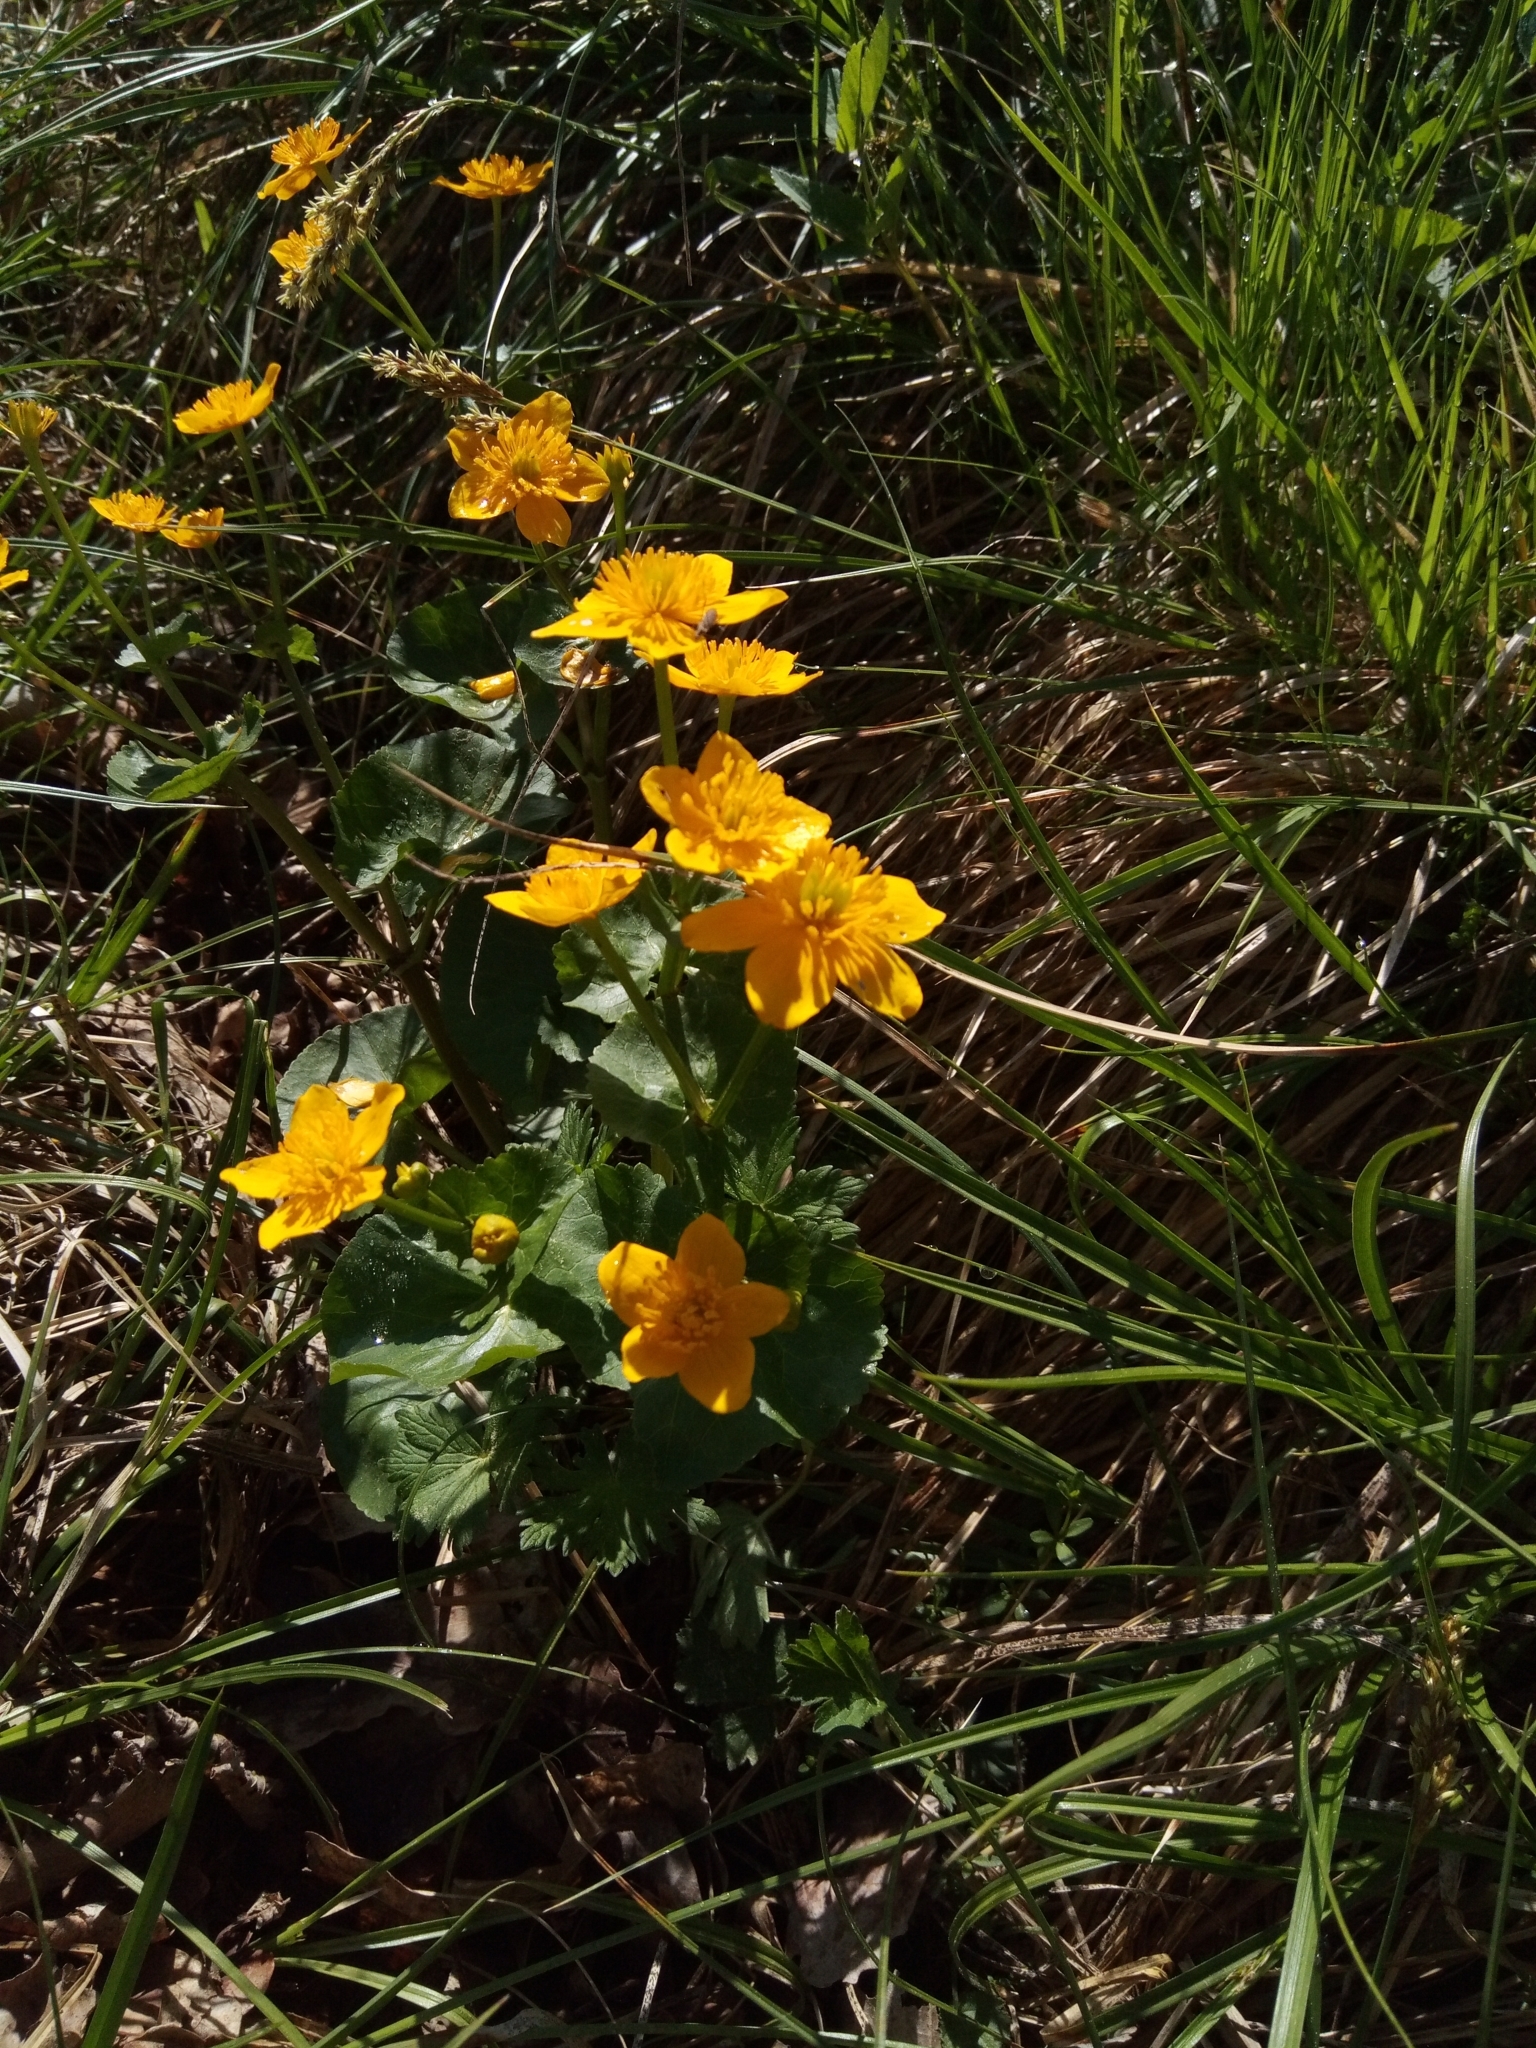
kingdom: Plantae
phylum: Tracheophyta
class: Magnoliopsida
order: Ranunculales
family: Ranunculaceae
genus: Caltha
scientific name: Caltha palustris
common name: Marsh marigold
